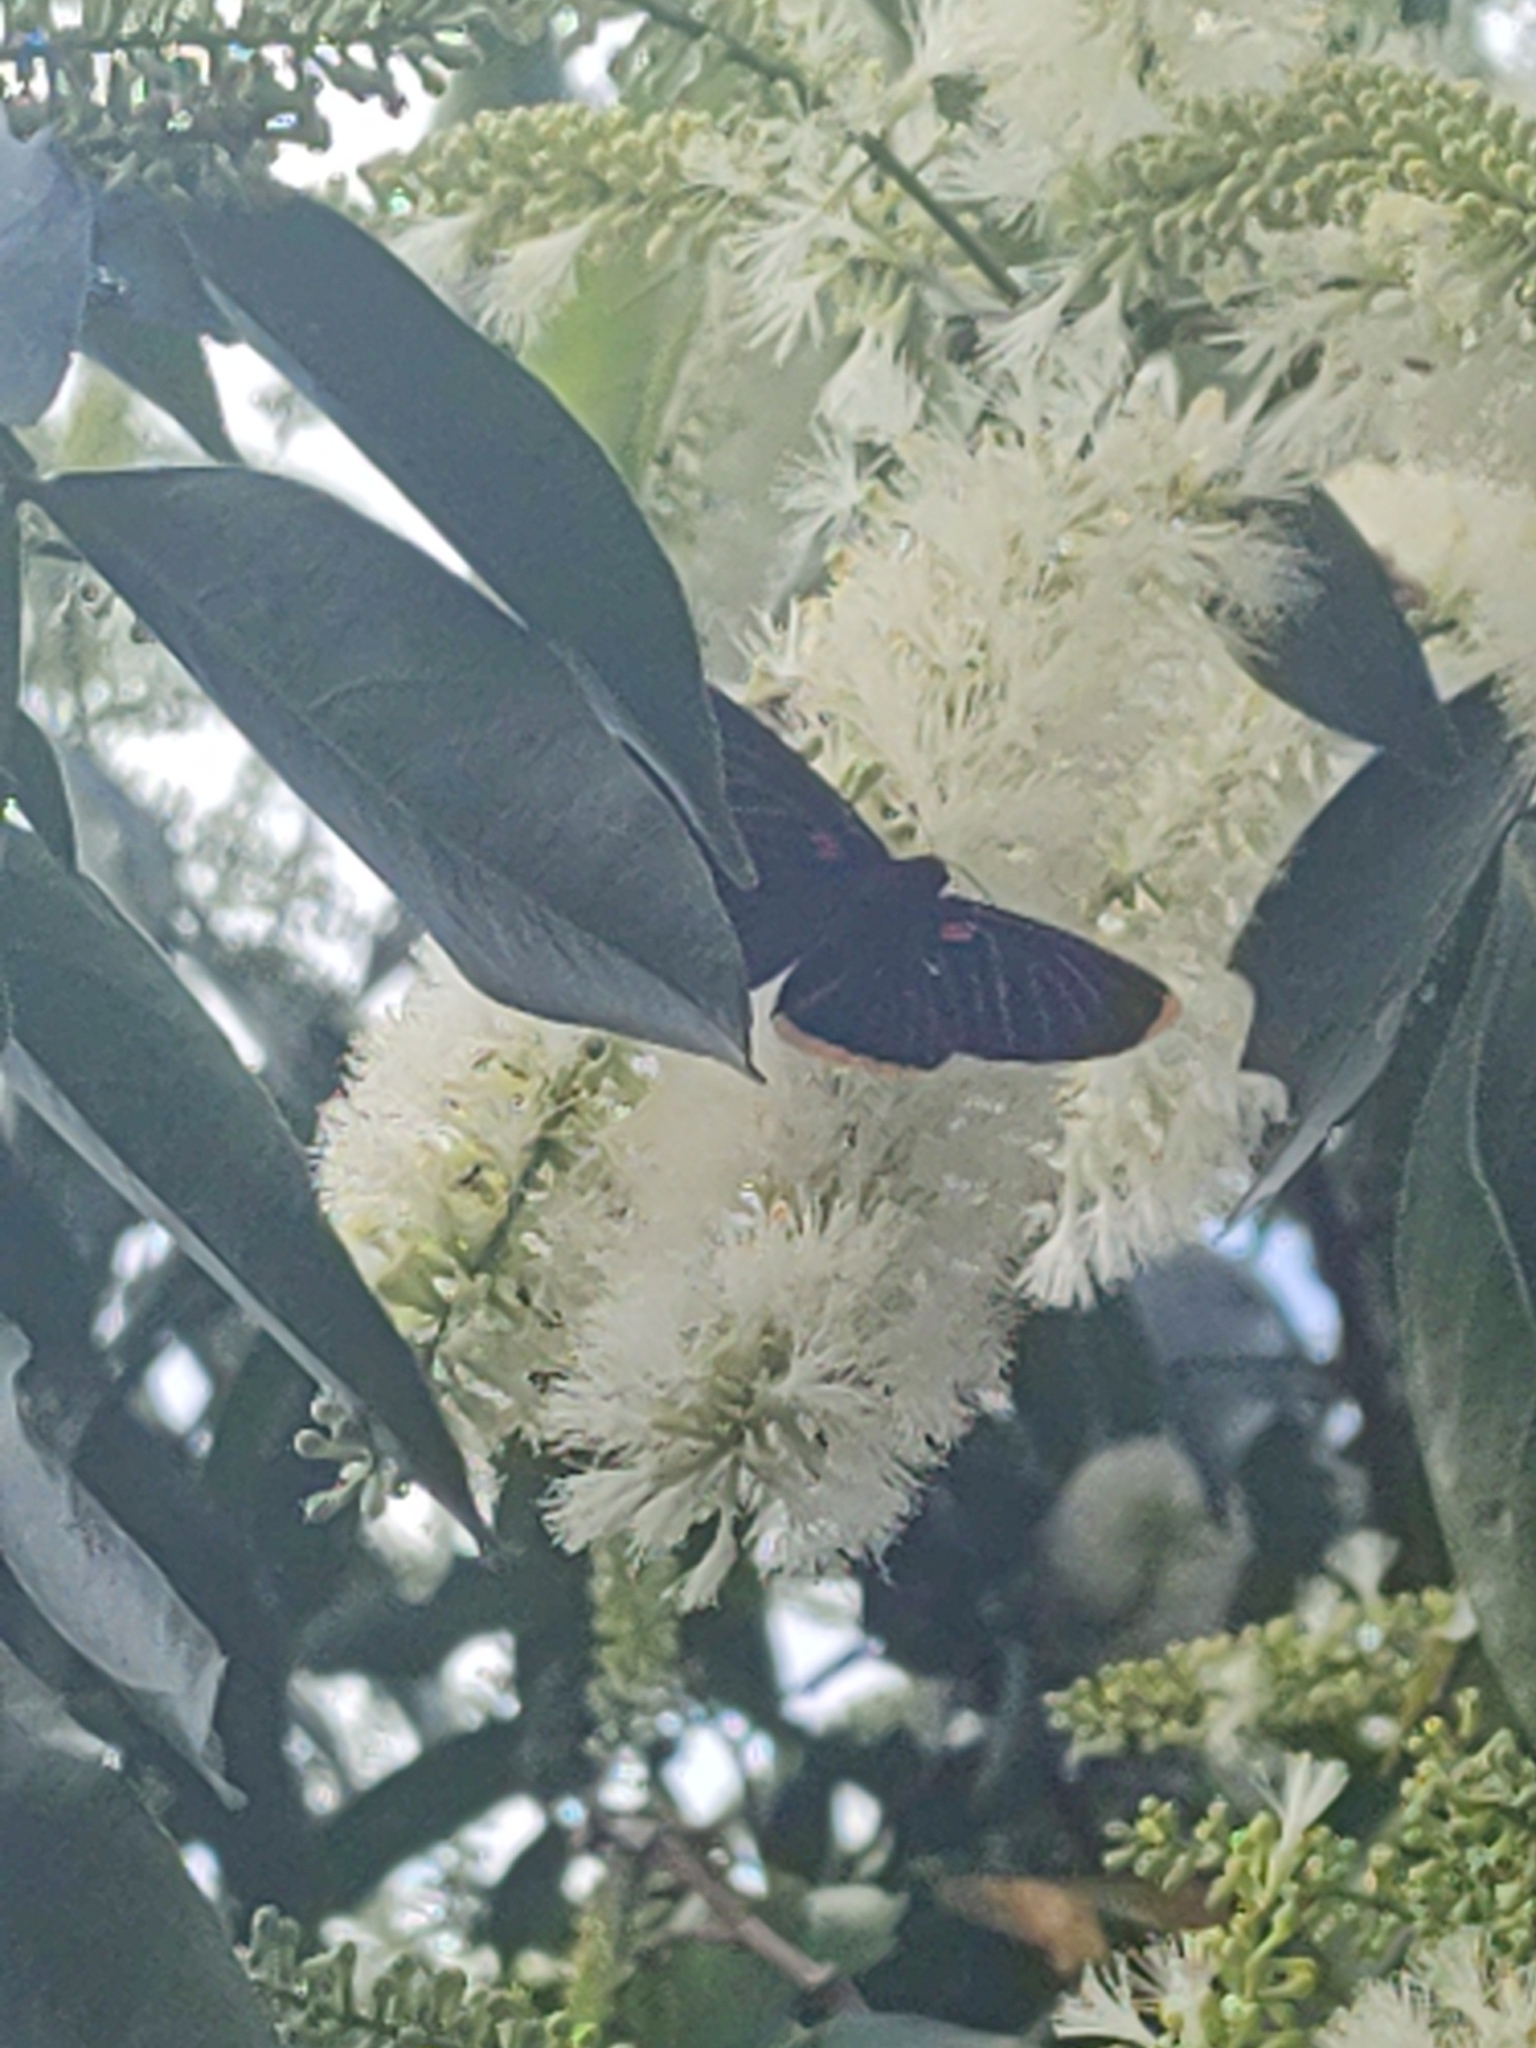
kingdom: Animalia
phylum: Arthropoda
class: Insecta
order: Lepidoptera
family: Lycaenidae
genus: Melanis
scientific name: Melanis smithiae
